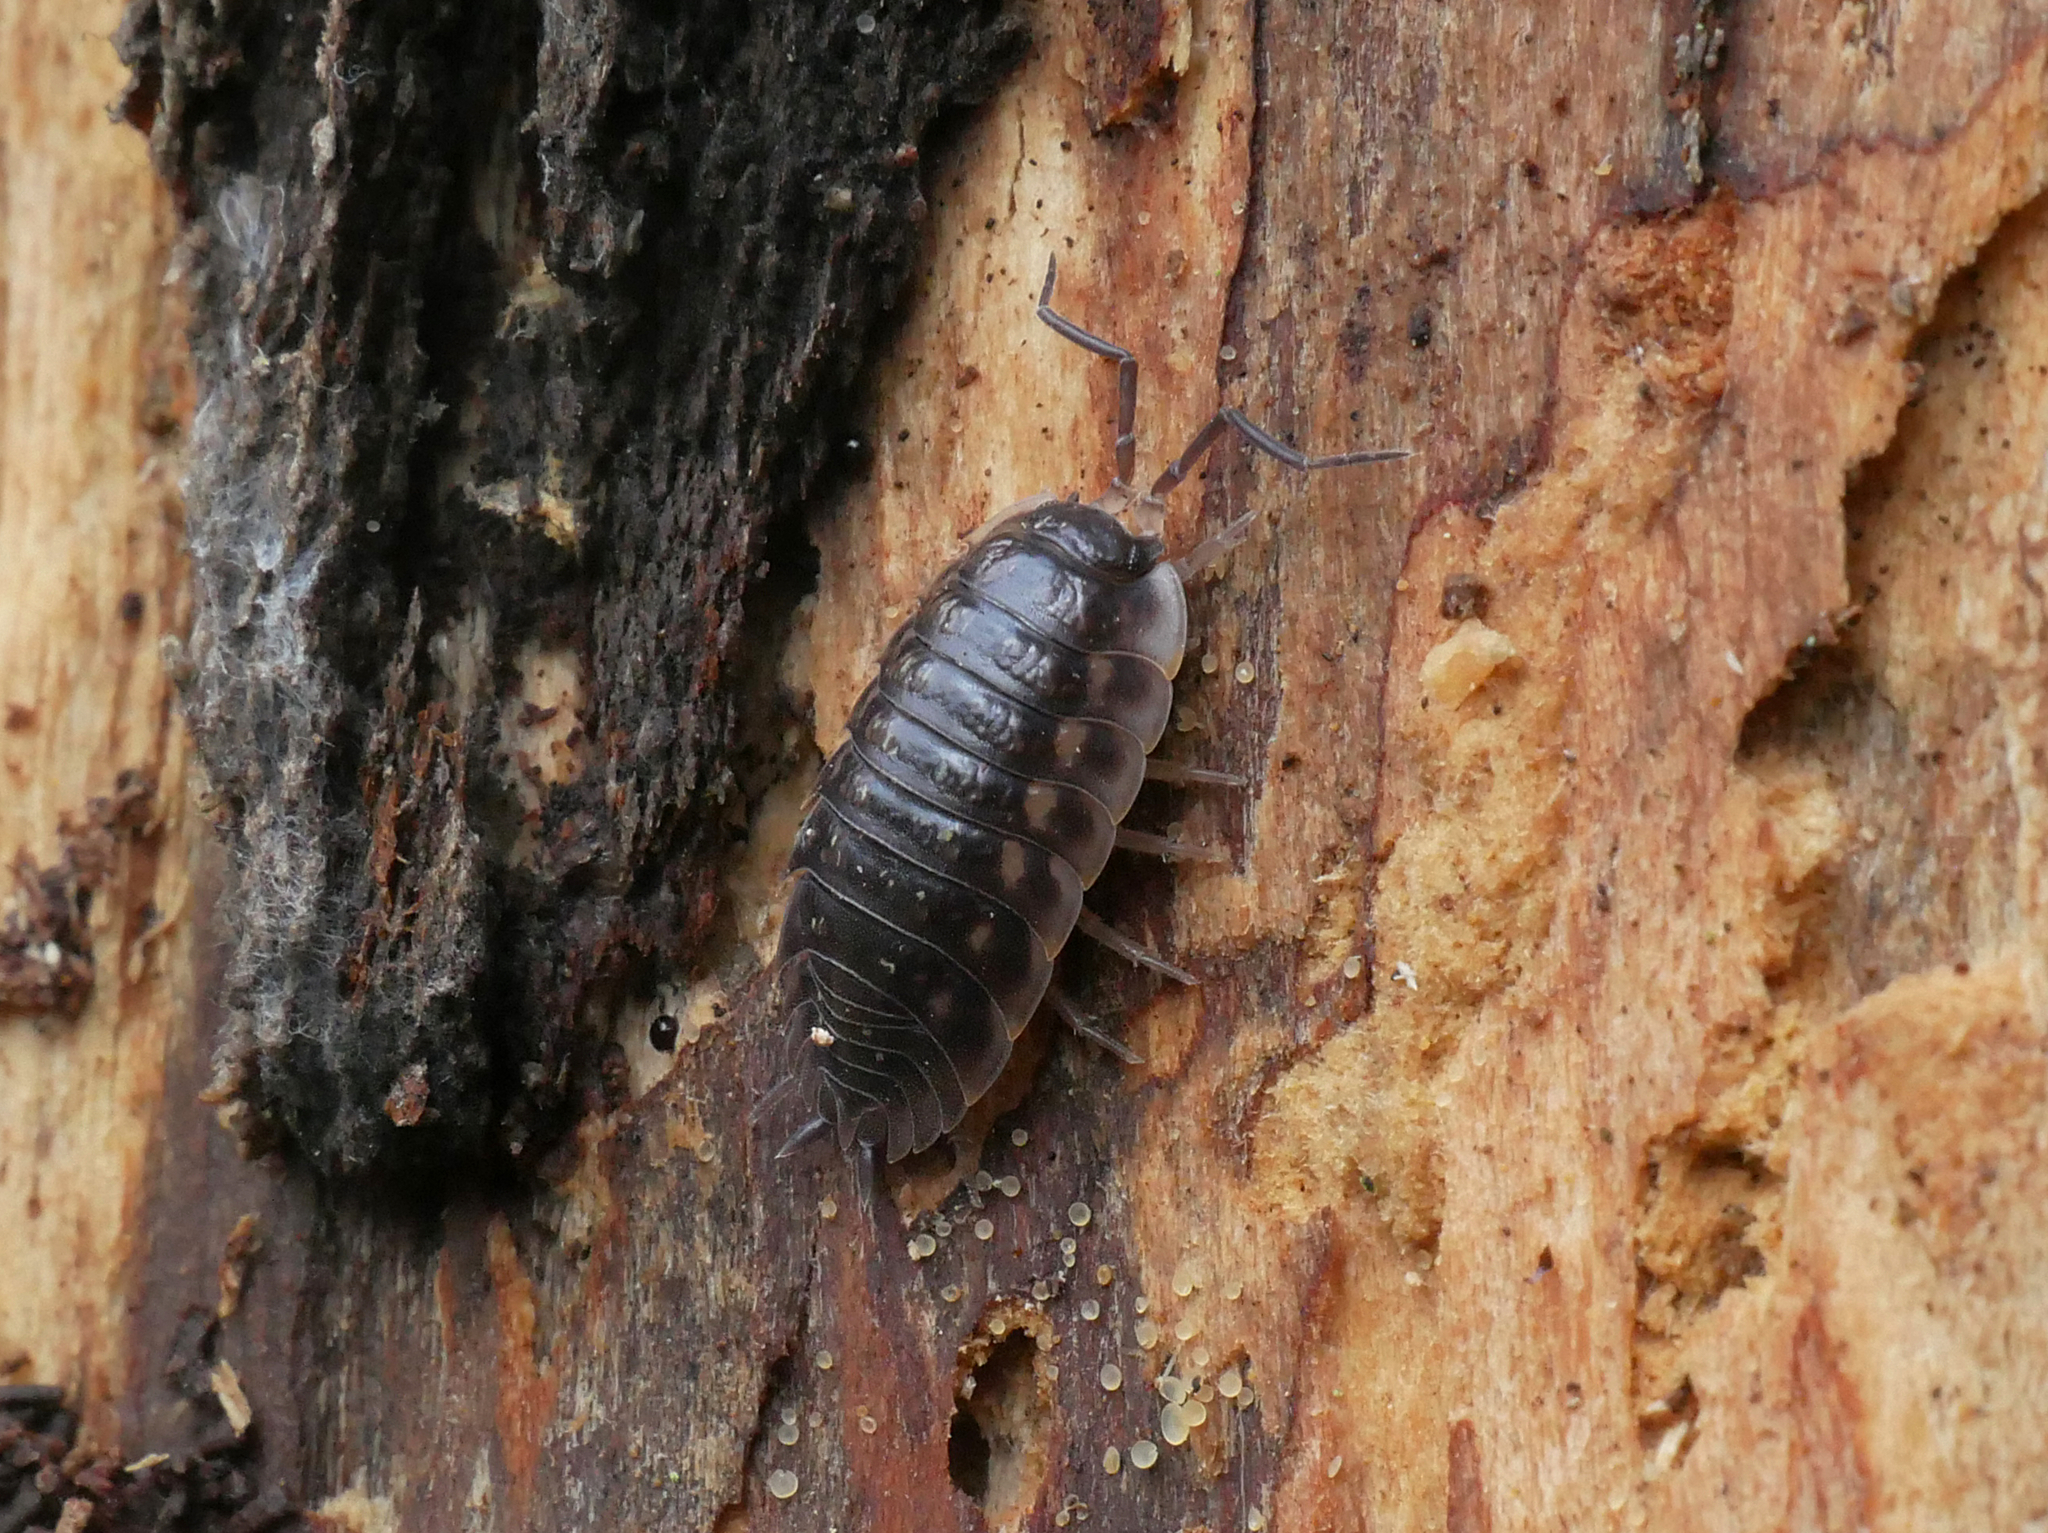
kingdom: Animalia
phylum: Arthropoda
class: Malacostraca
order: Isopoda
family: Oniscidae
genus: Oniscus
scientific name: Oniscus asellus
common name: Common shiny woodlouse
